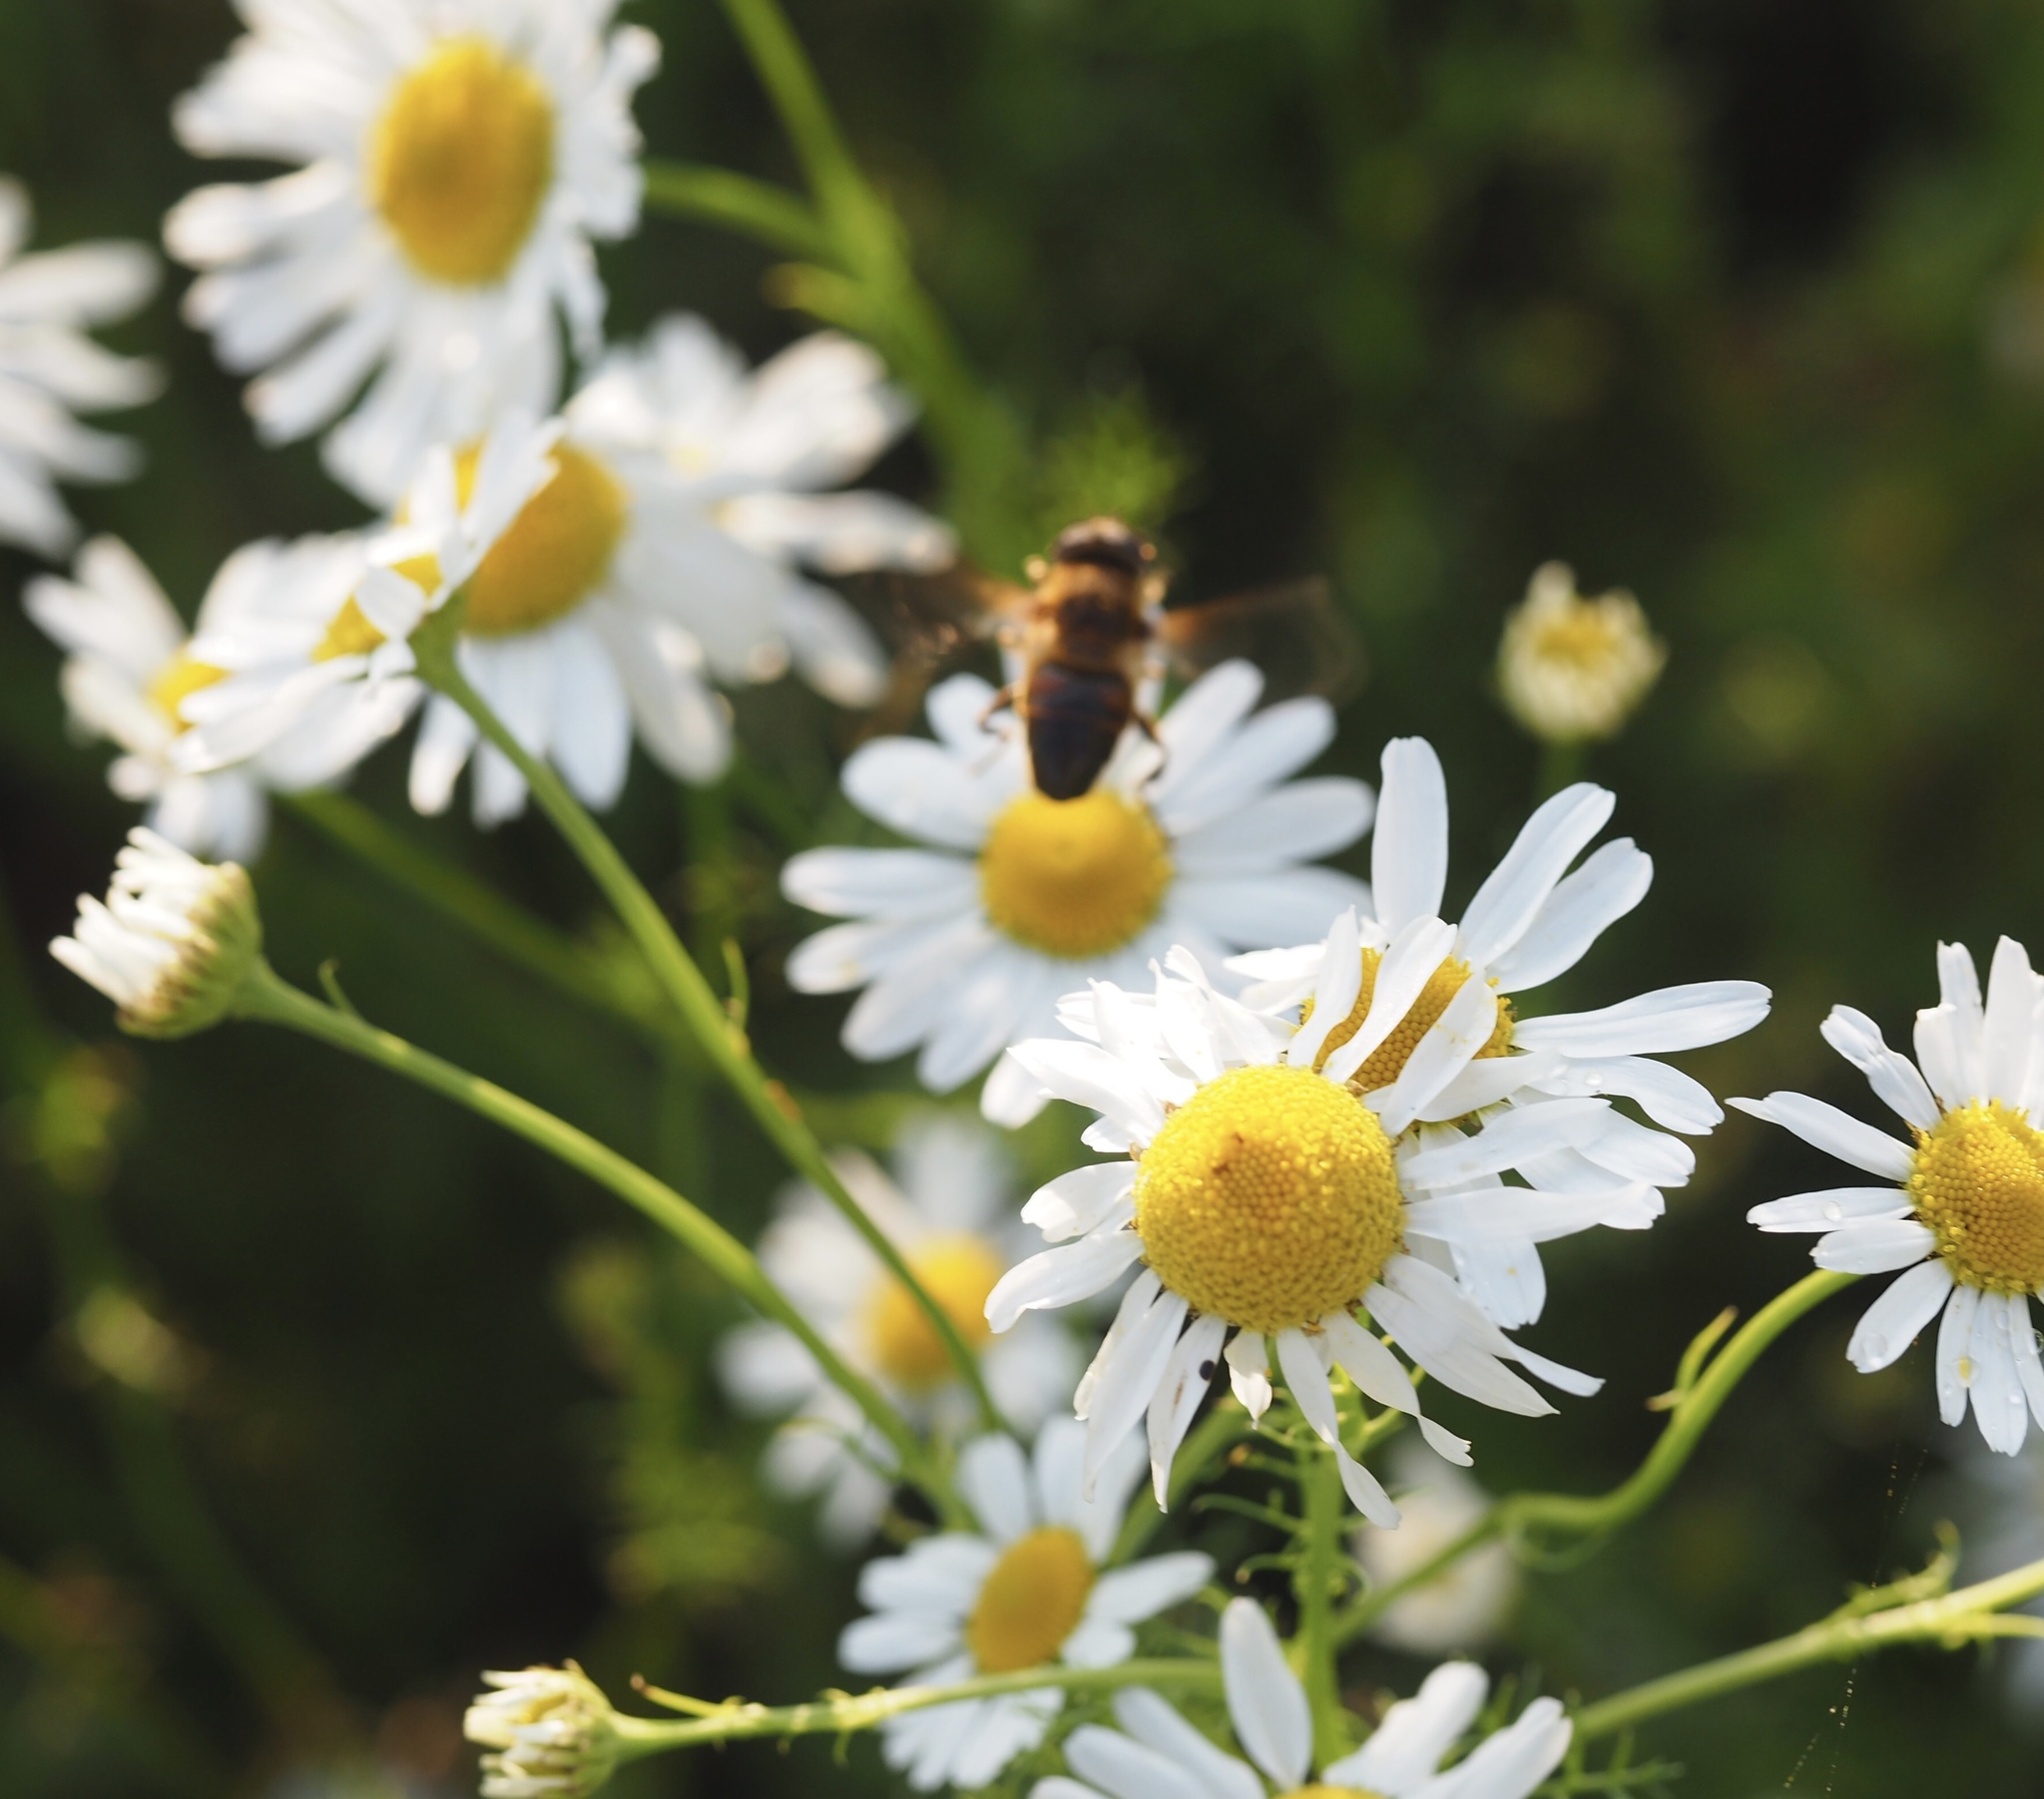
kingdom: Animalia
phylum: Arthropoda
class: Insecta
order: Diptera
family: Syrphidae
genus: Eristalis
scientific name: Eristalis tenax
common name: Drone fly
